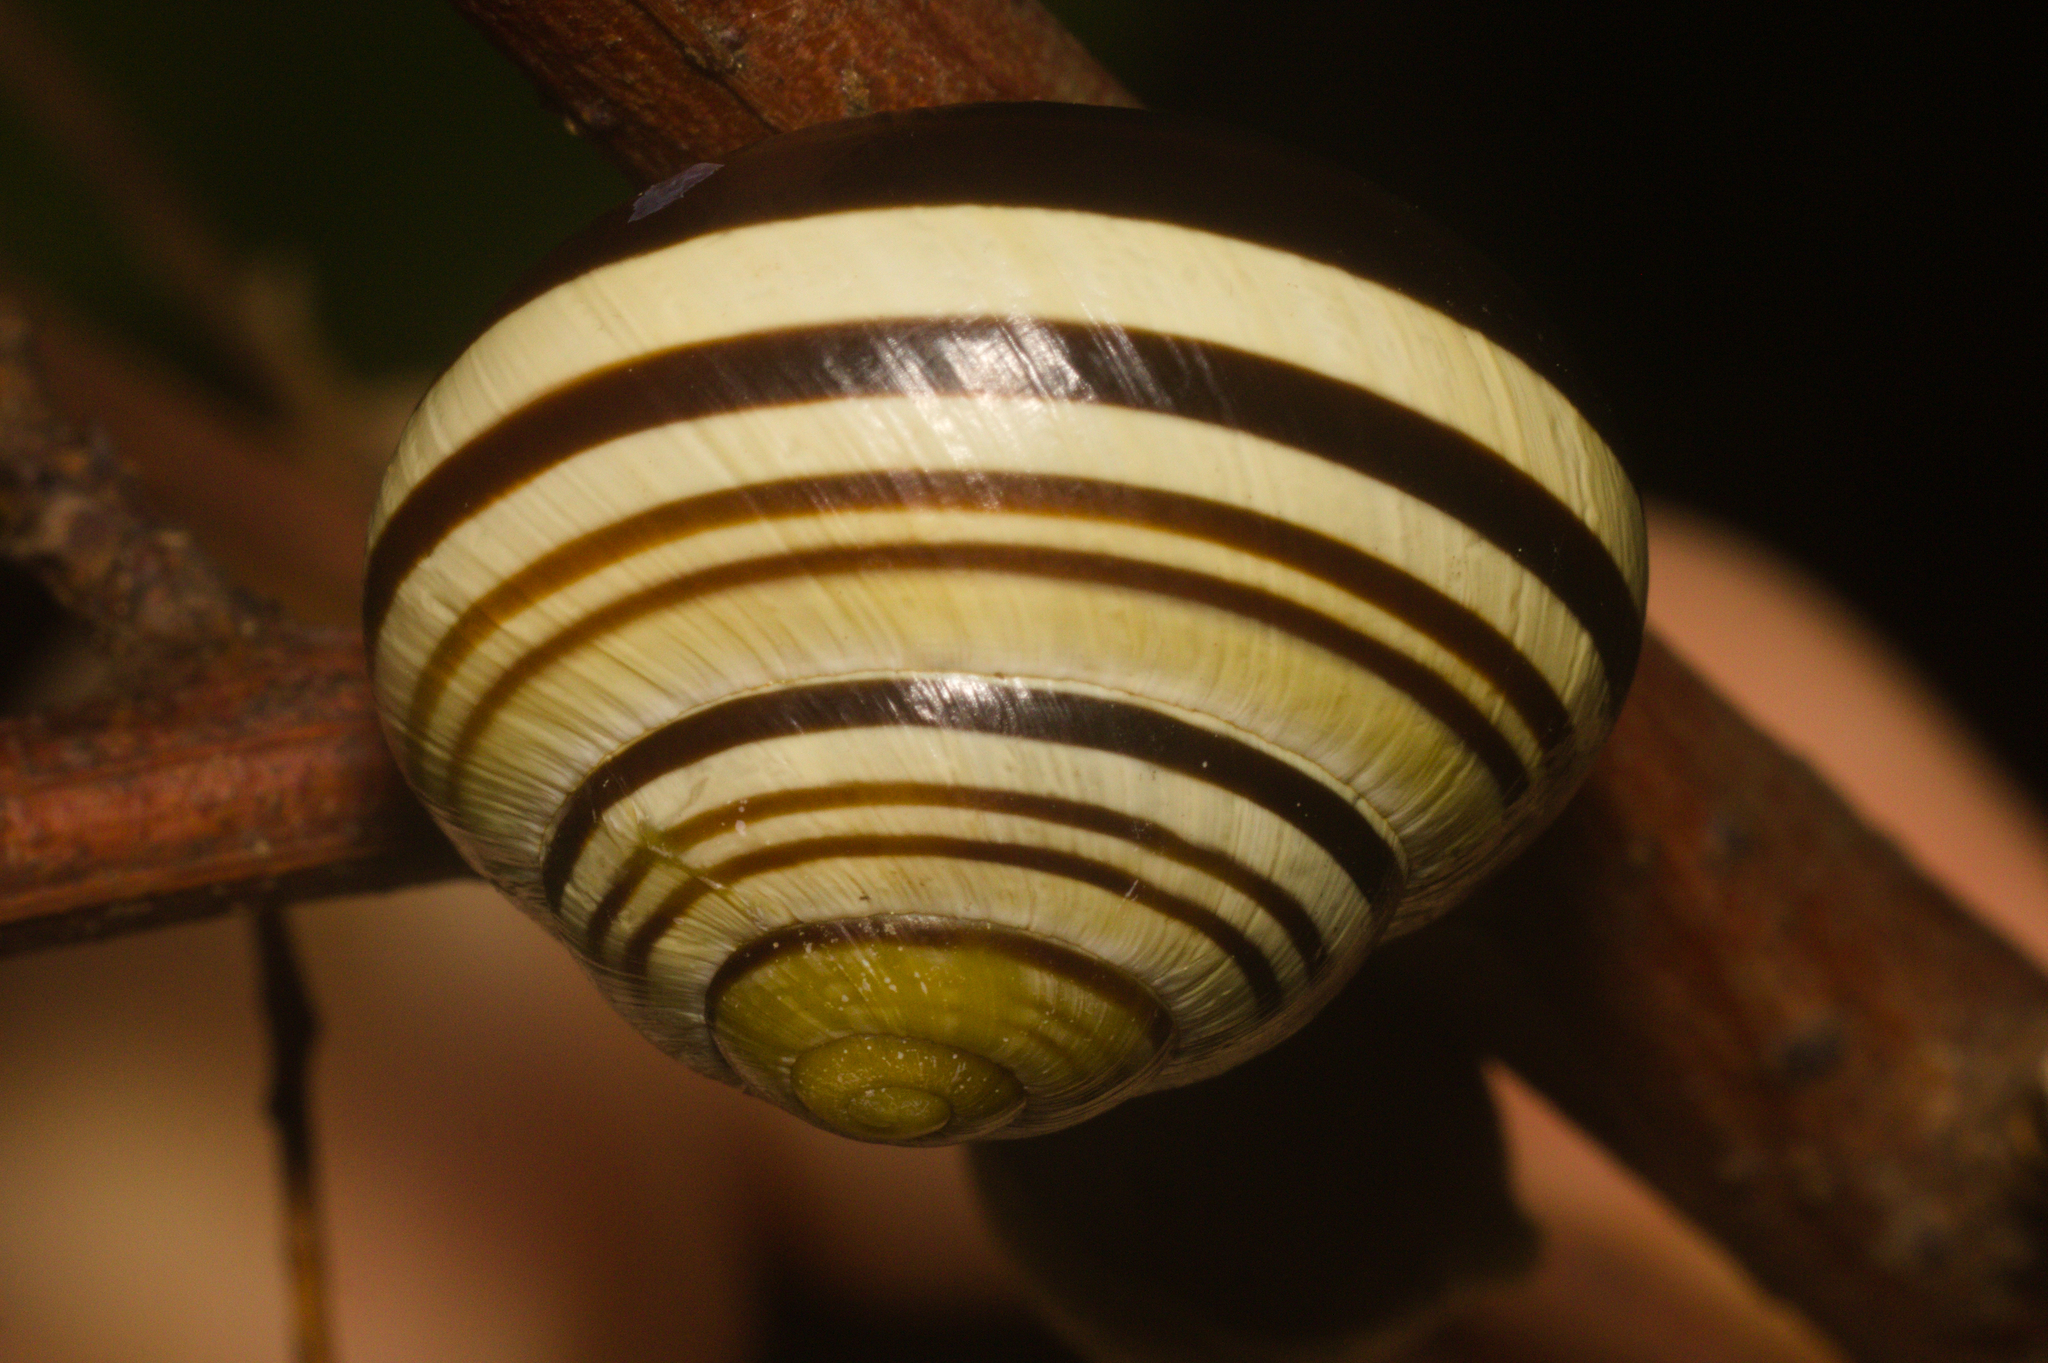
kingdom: Animalia
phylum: Mollusca
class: Gastropoda
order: Stylommatophora
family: Helicidae
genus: Cepaea
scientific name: Cepaea nemoralis
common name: Grovesnail
